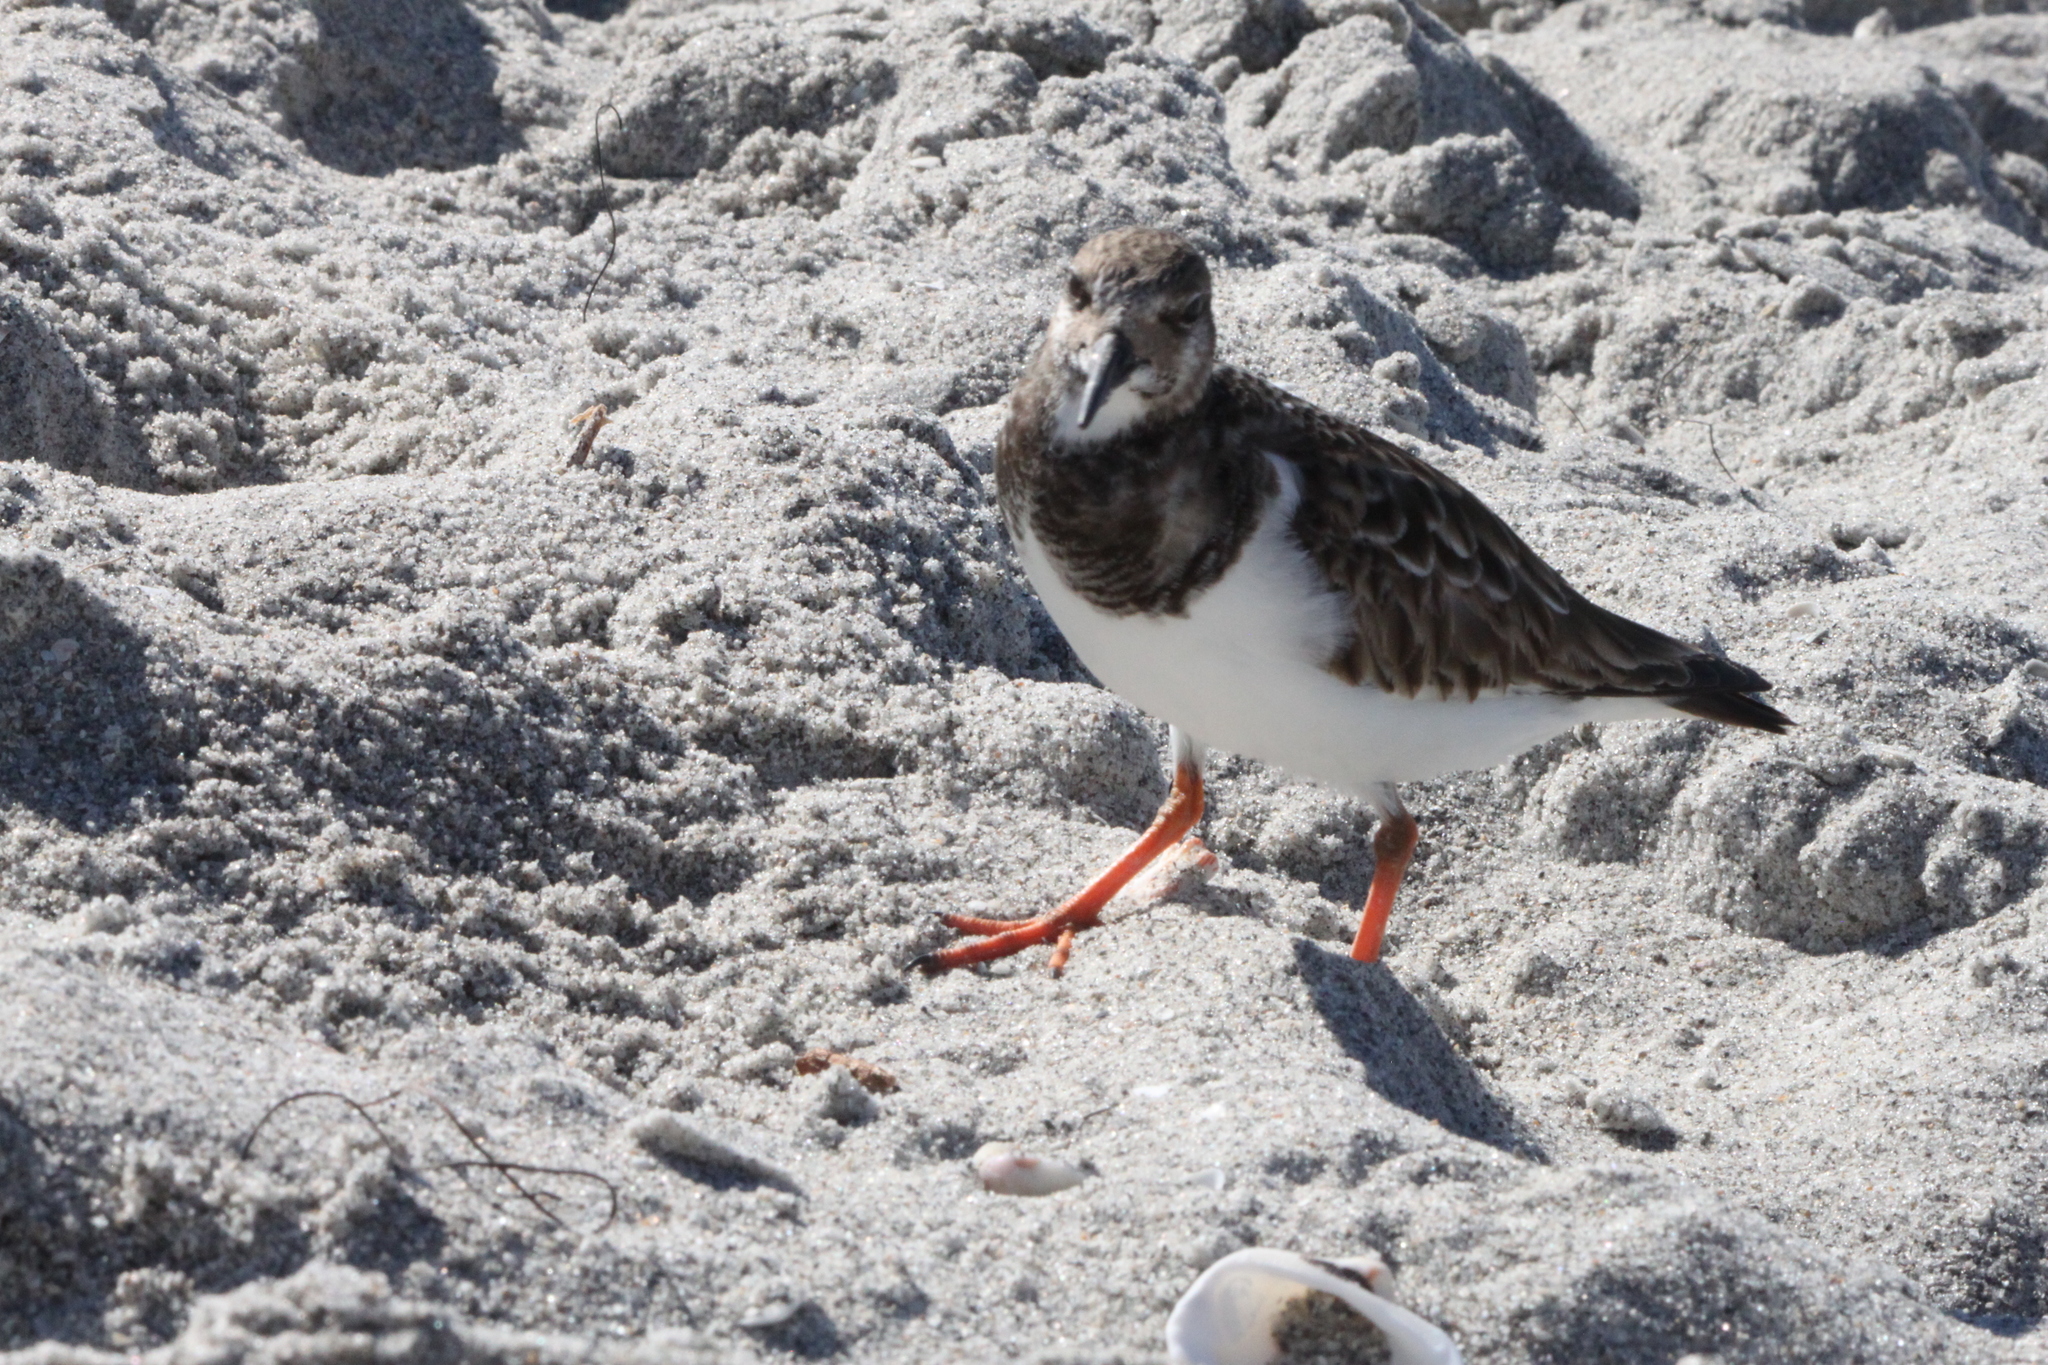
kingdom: Animalia
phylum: Chordata
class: Aves
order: Charadriiformes
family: Scolopacidae
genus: Arenaria
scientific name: Arenaria interpres
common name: Ruddy turnstone
